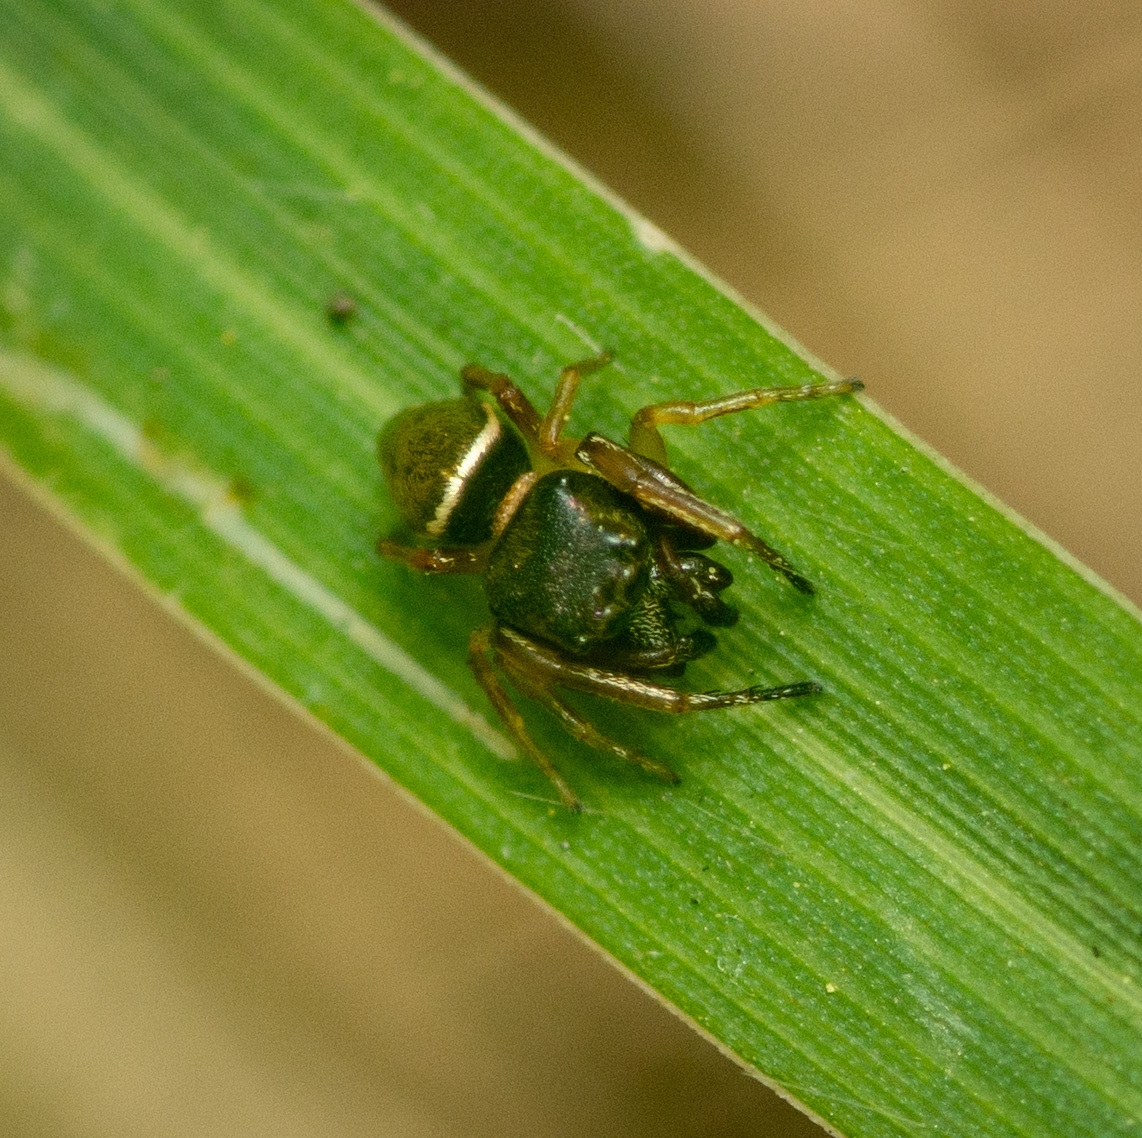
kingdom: Animalia
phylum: Arthropoda
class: Arachnida
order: Araneae
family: Salticidae
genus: Zygoballus
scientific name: Zygoballus rufipes
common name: Jumping spiders
